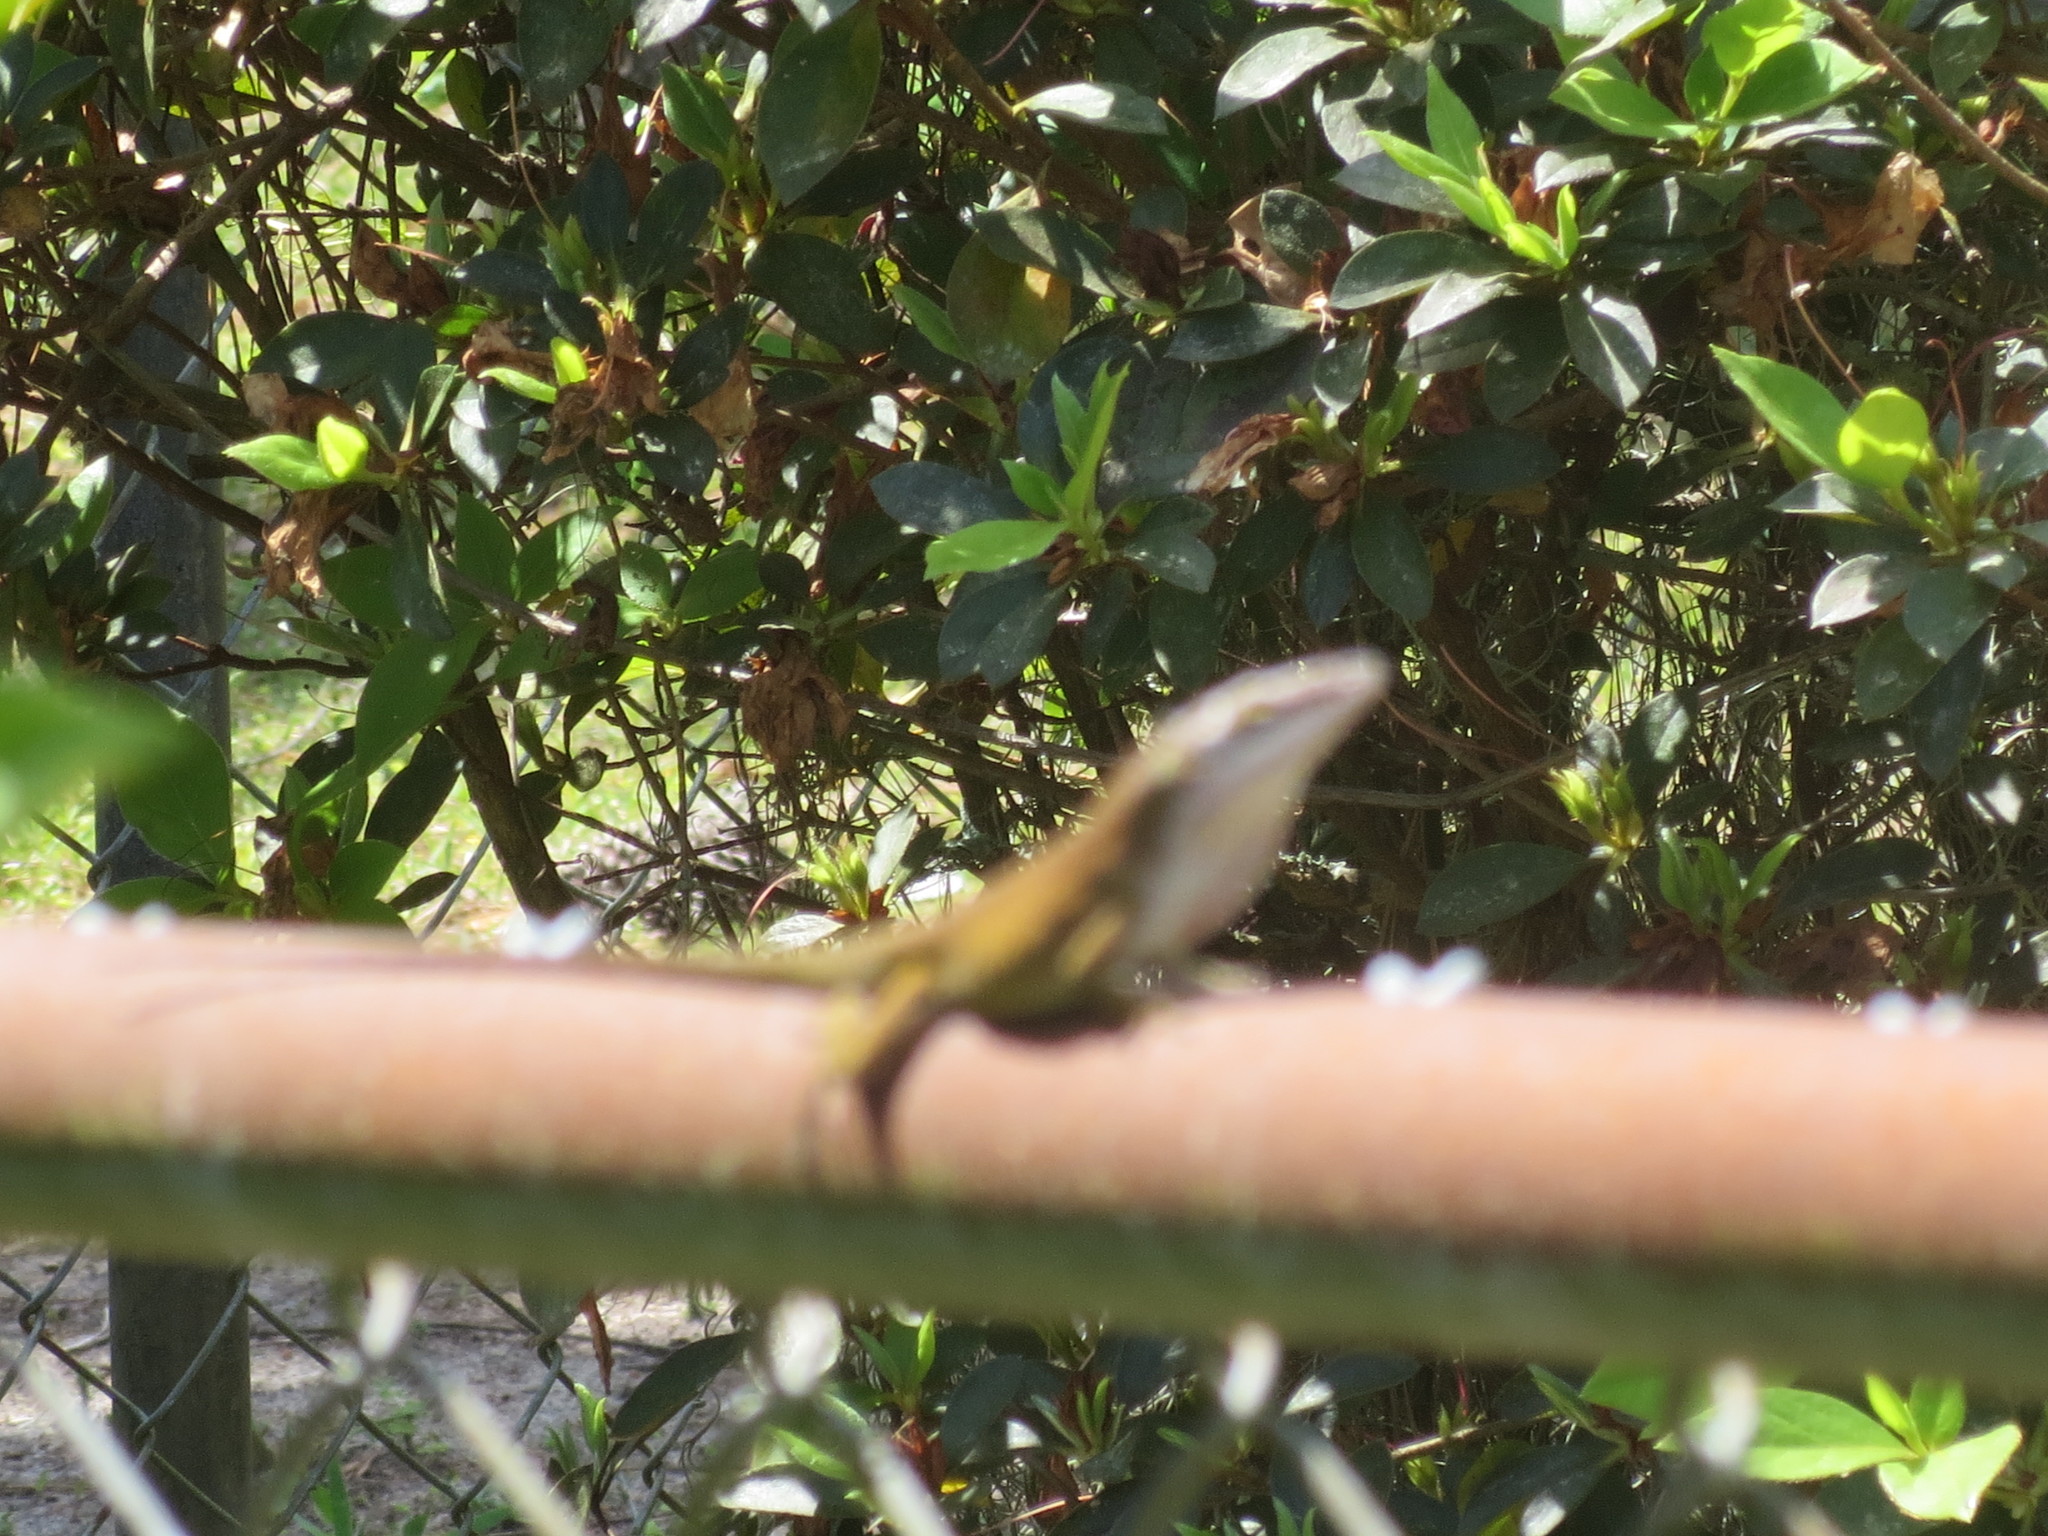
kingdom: Animalia
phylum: Chordata
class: Squamata
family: Dactyloidae
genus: Anolis
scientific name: Anolis carolinensis
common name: Green anole
